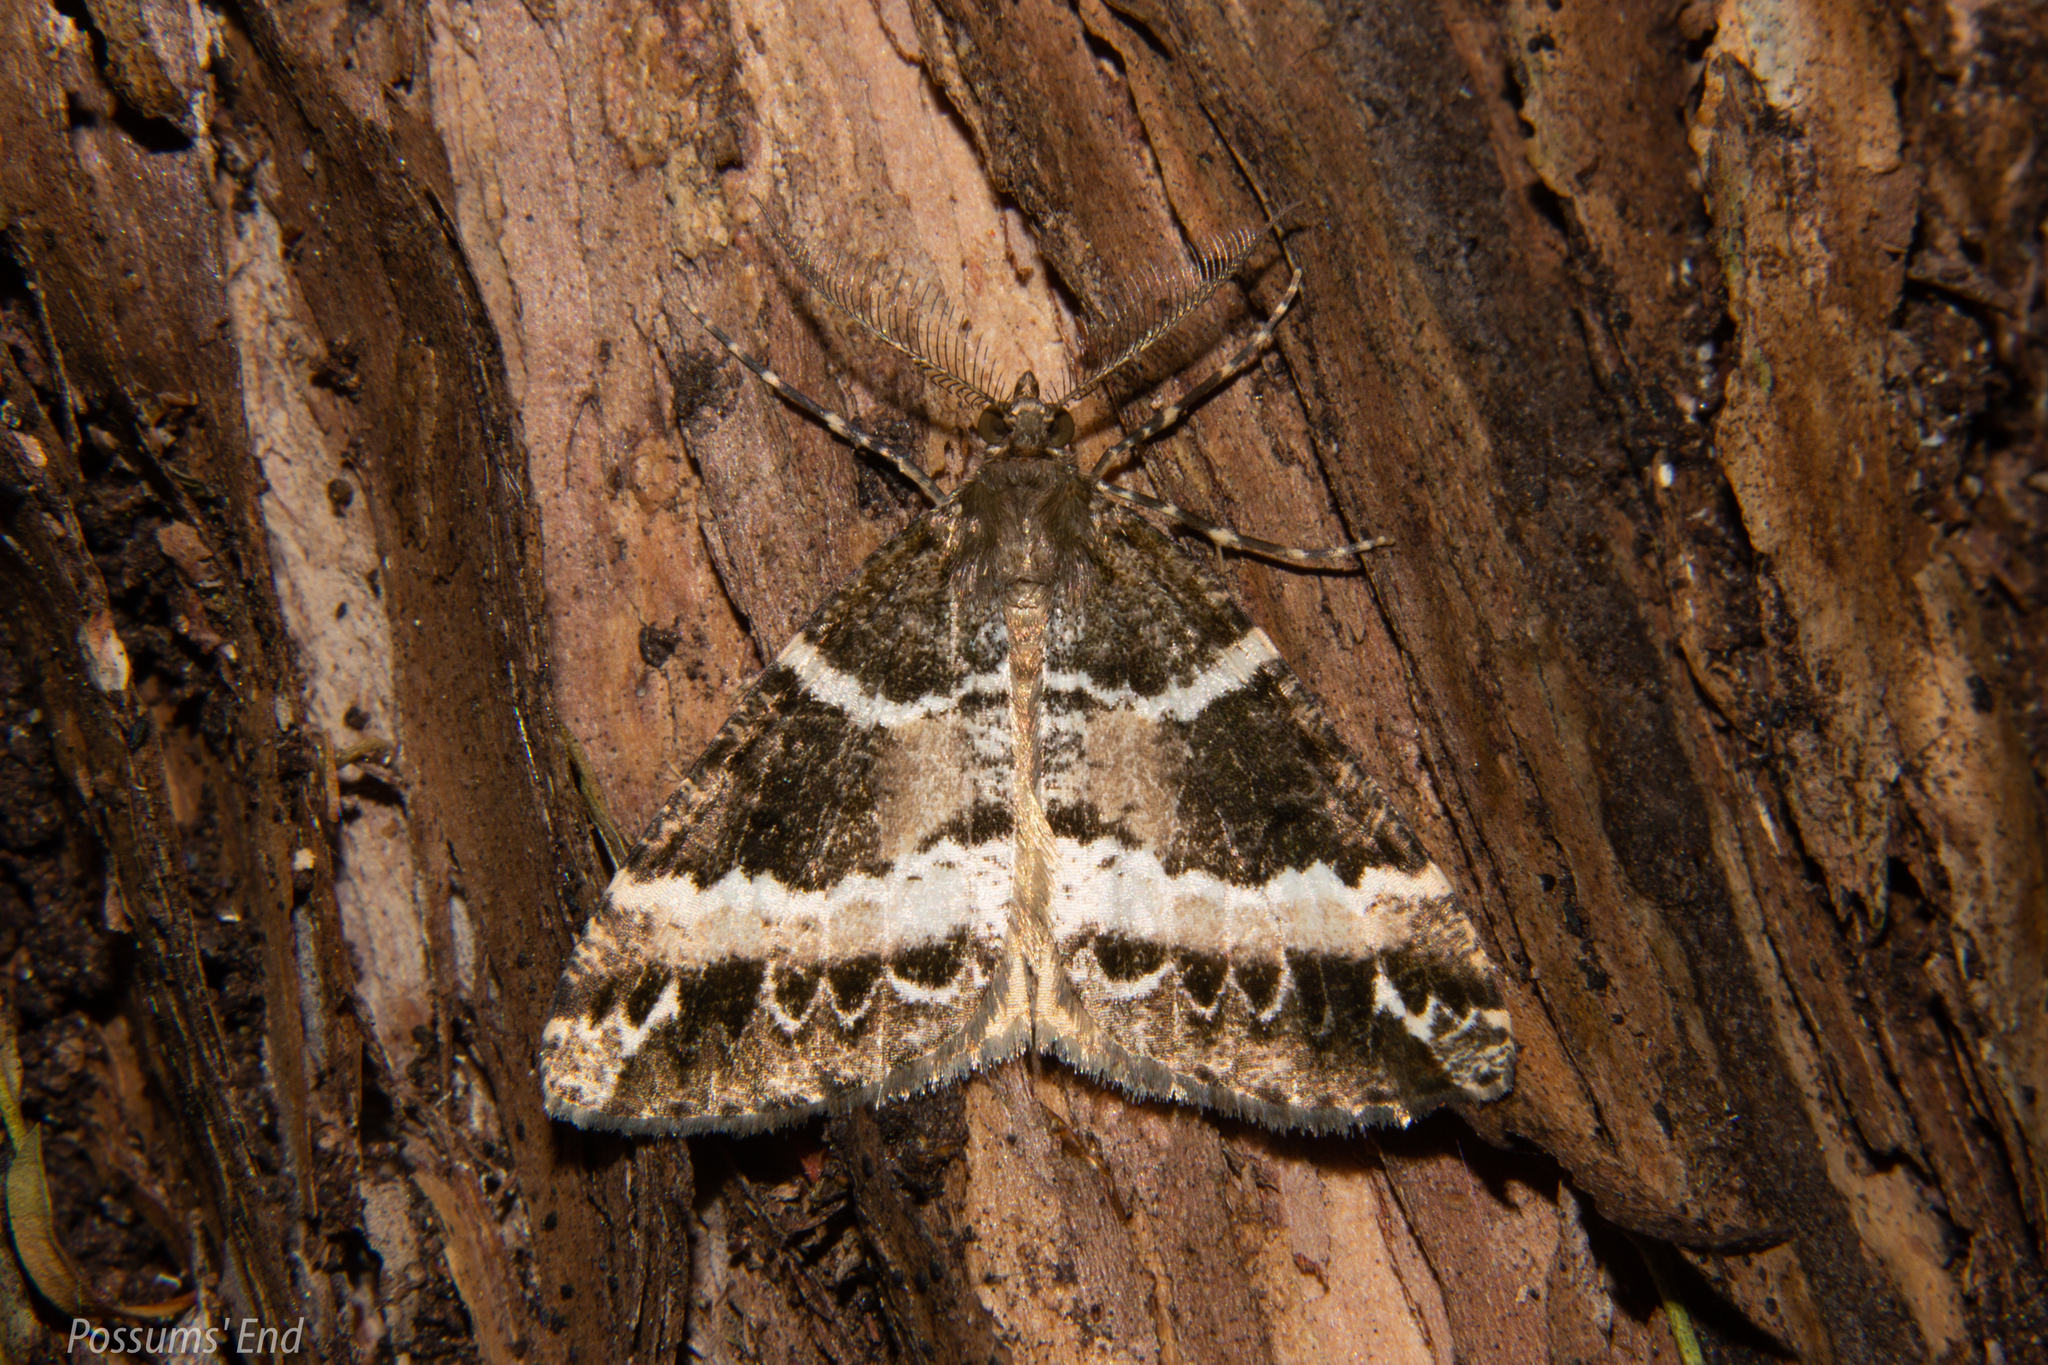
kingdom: Animalia
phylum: Arthropoda
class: Insecta
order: Lepidoptera
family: Geometridae
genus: Pseudocoremia
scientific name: Pseudocoremia
